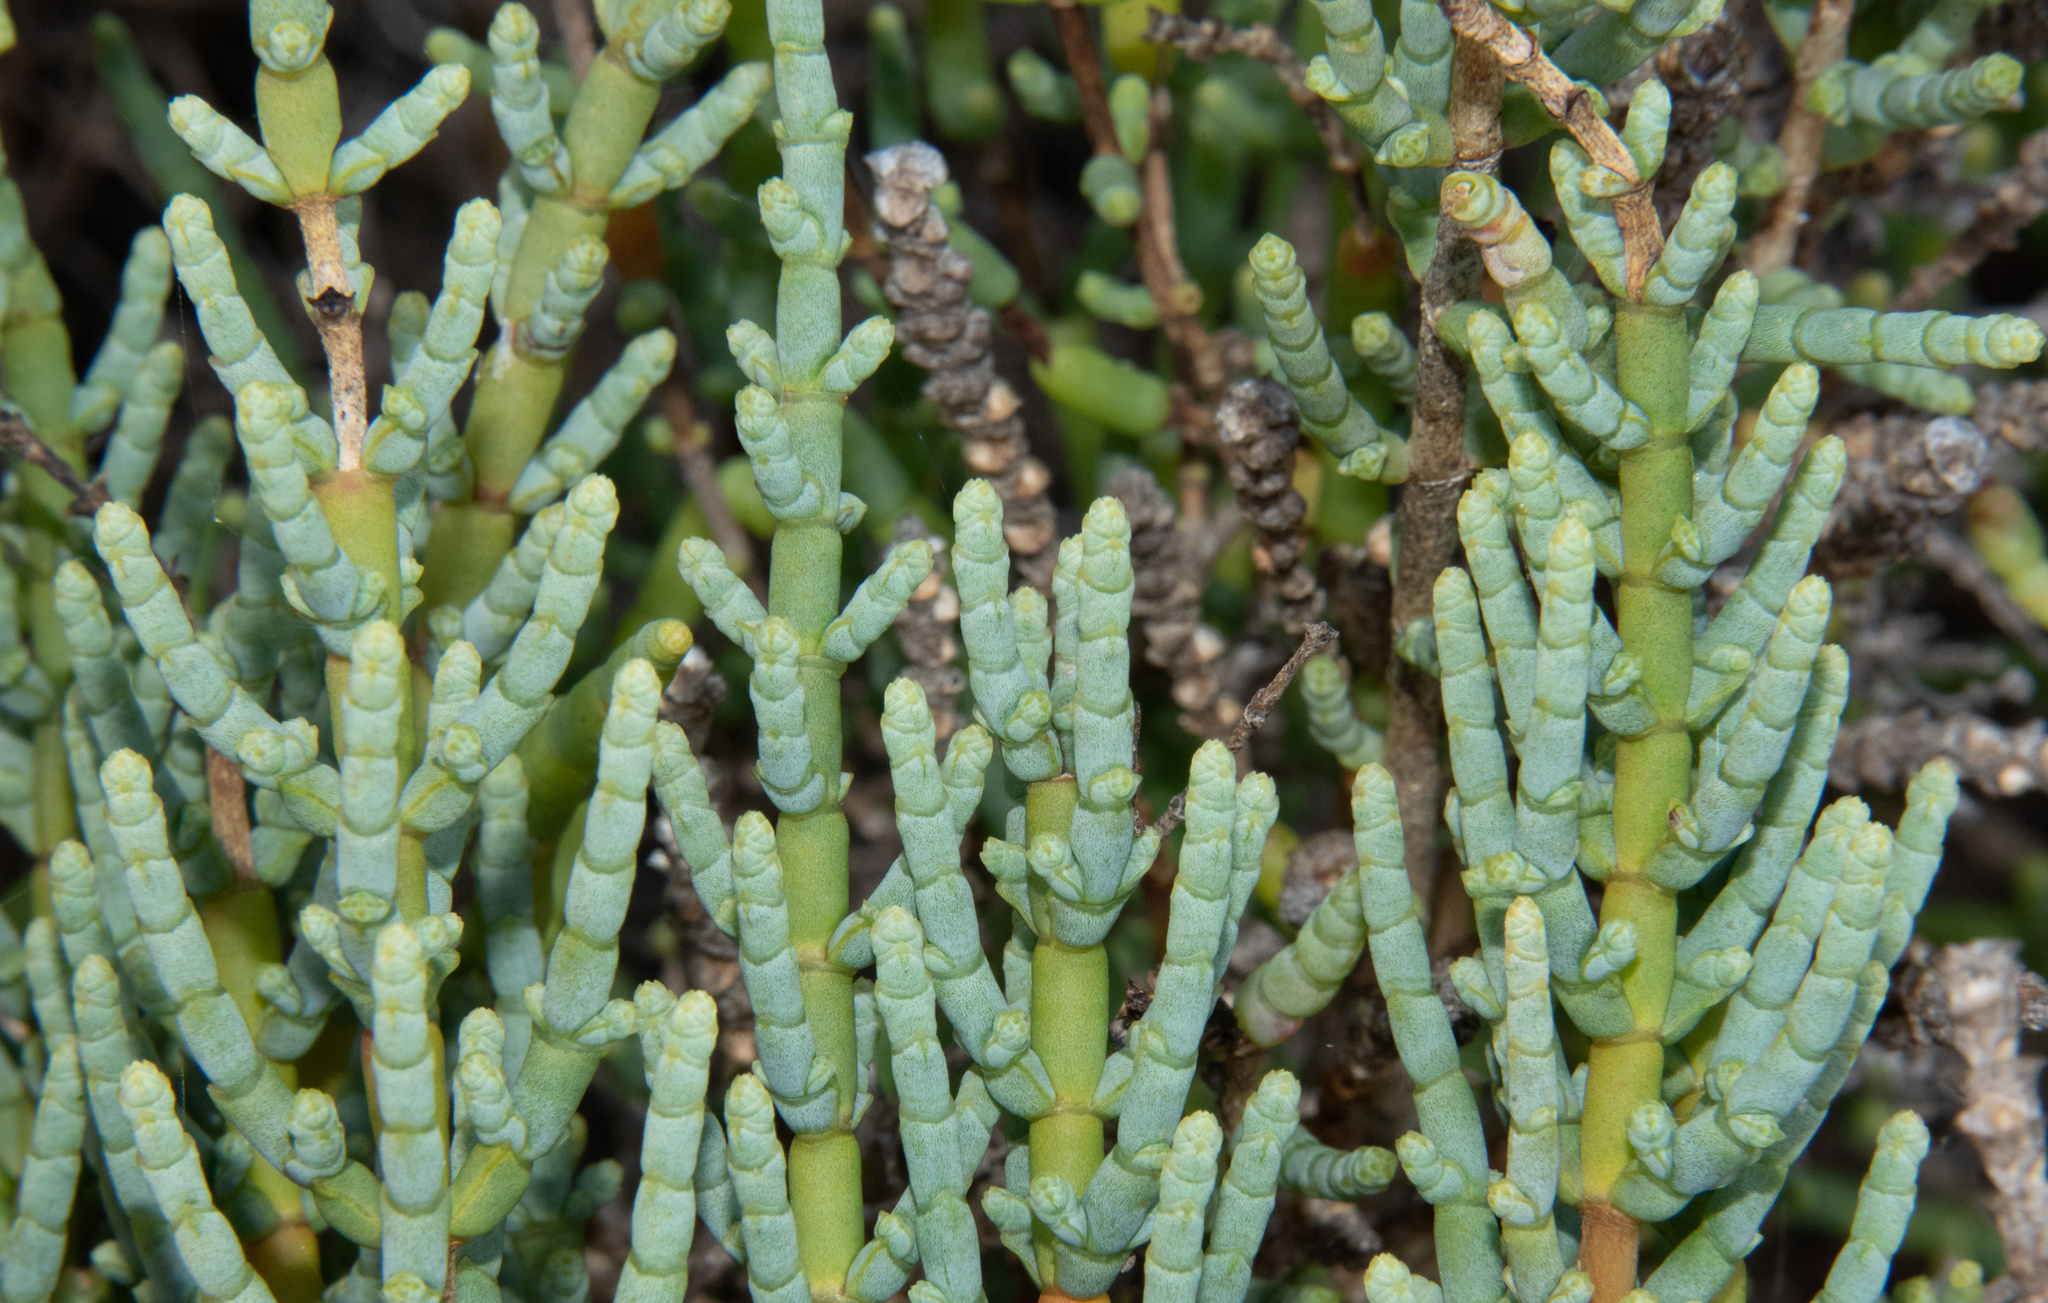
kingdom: Plantae
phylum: Tracheophyta
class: Magnoliopsida
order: Caryophyllales
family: Amaranthaceae
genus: Salicornia
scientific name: Salicornia fruticosa
